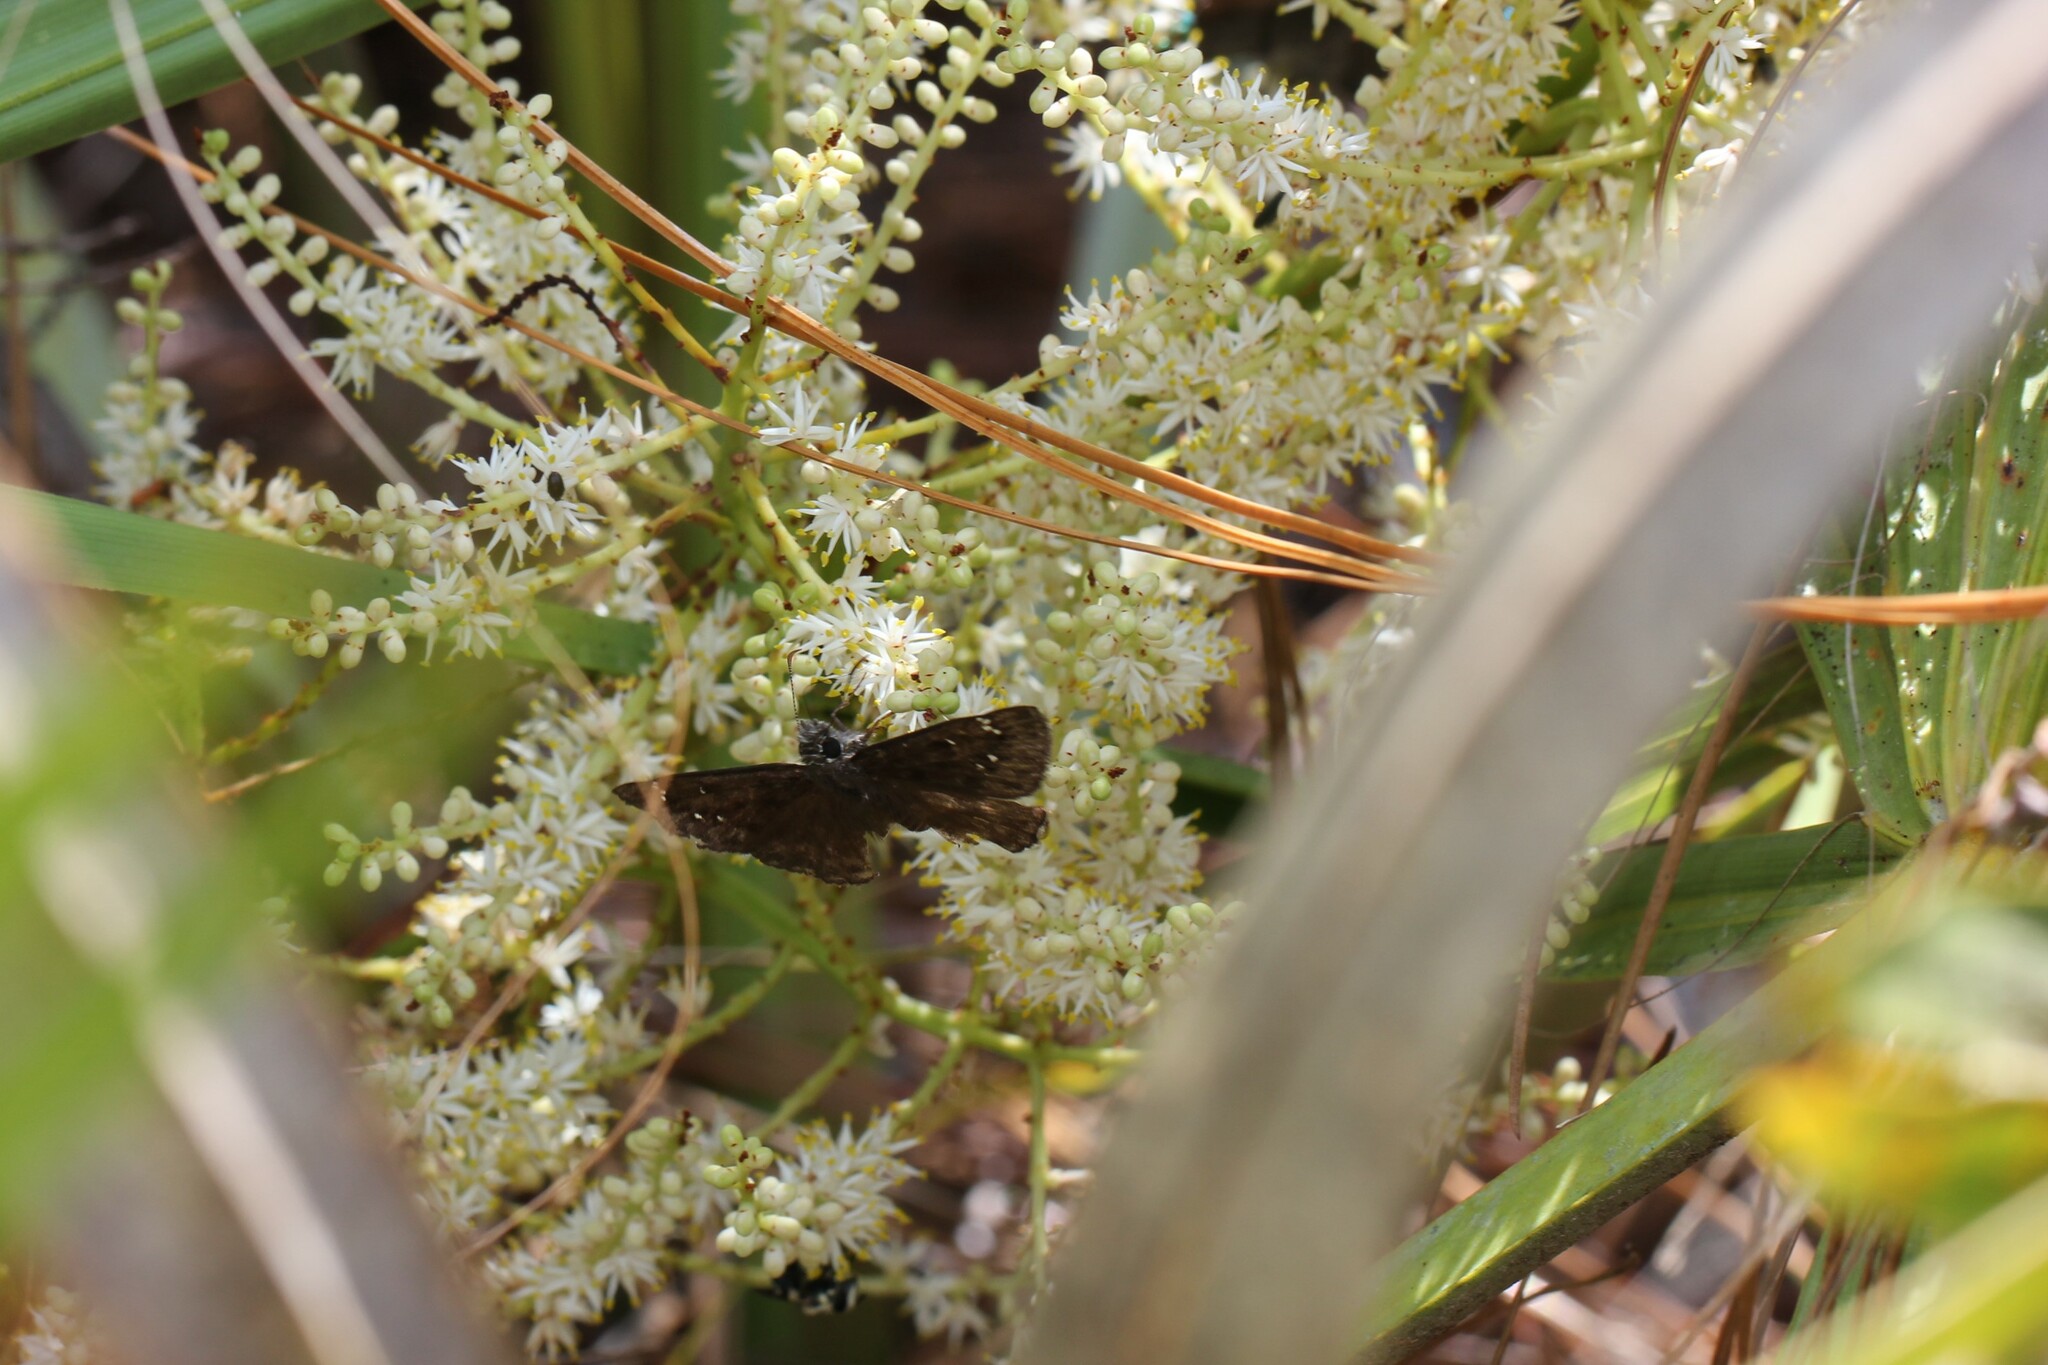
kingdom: Animalia
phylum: Arthropoda
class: Insecta
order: Lepidoptera
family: Hesperiidae
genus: Erynnis
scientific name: Erynnis horatius
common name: Horace's duskywing
